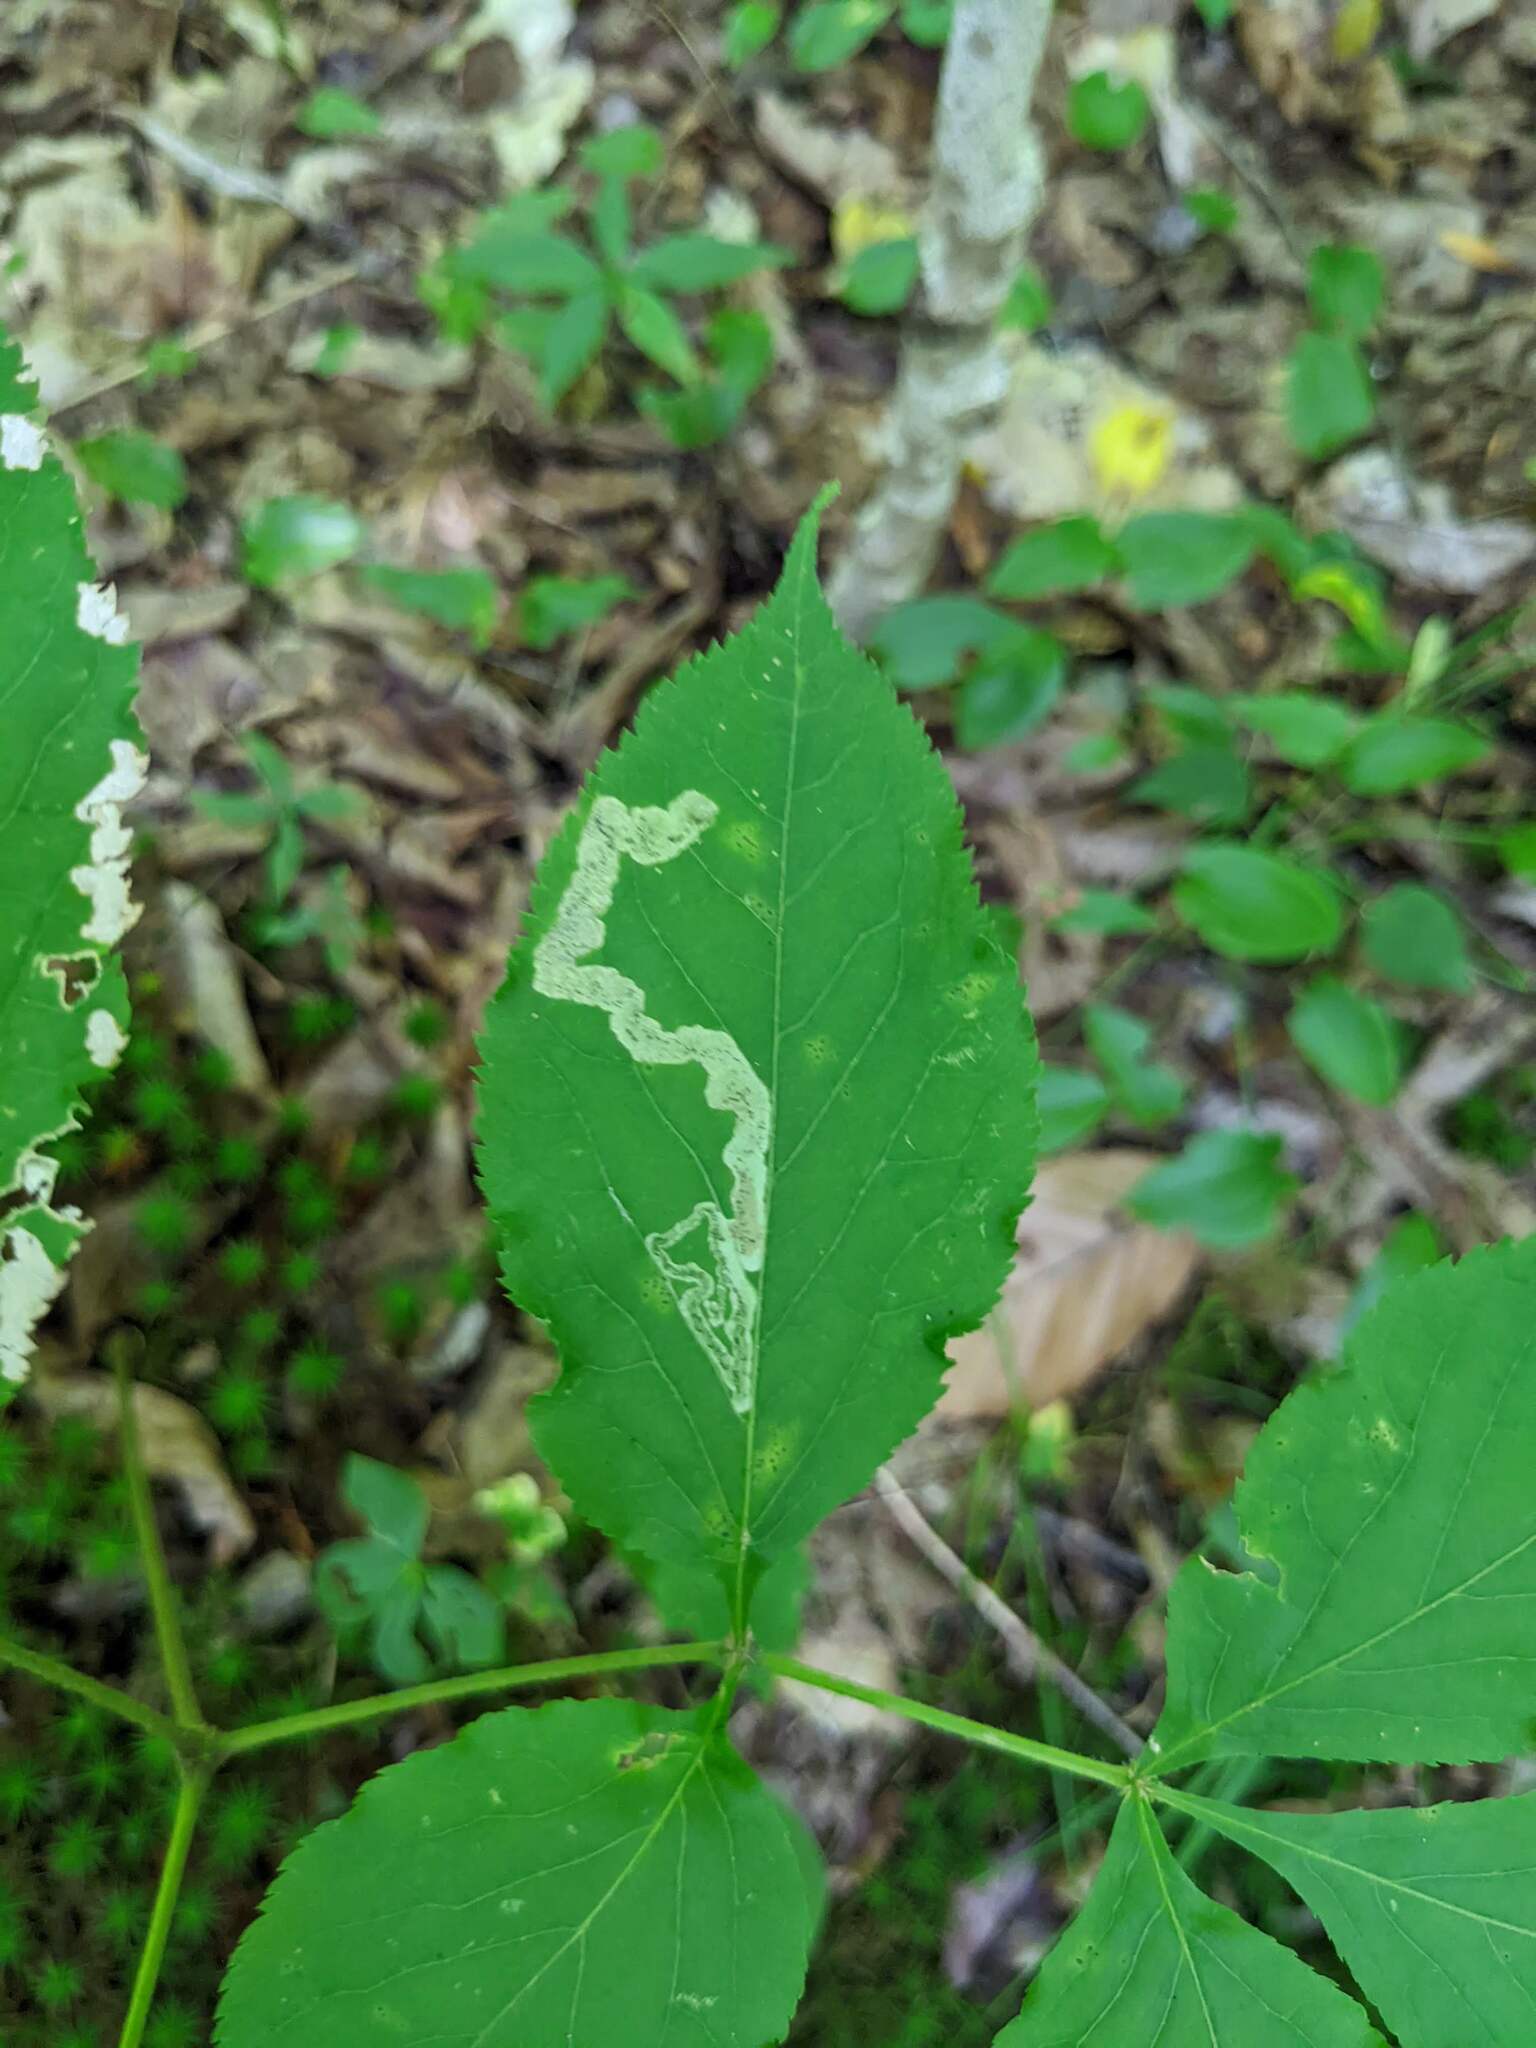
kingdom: Animalia
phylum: Arthropoda
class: Insecta
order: Diptera
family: Agromyzidae
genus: Phytomyza
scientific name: Phytomyza aralivora
